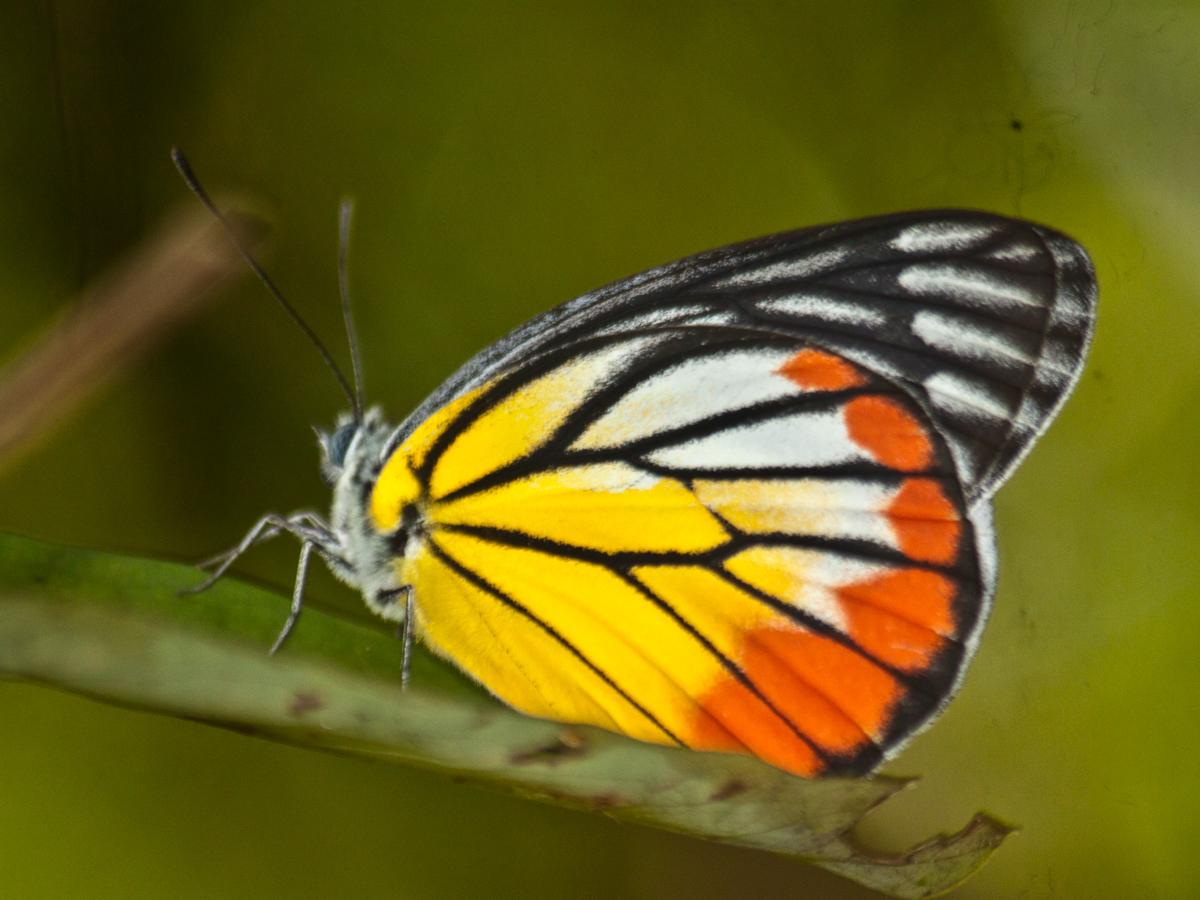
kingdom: Animalia
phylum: Arthropoda
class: Insecta
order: Lepidoptera
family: Pieridae
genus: Delias
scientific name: Delias hyparete
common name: Painted jezebel
